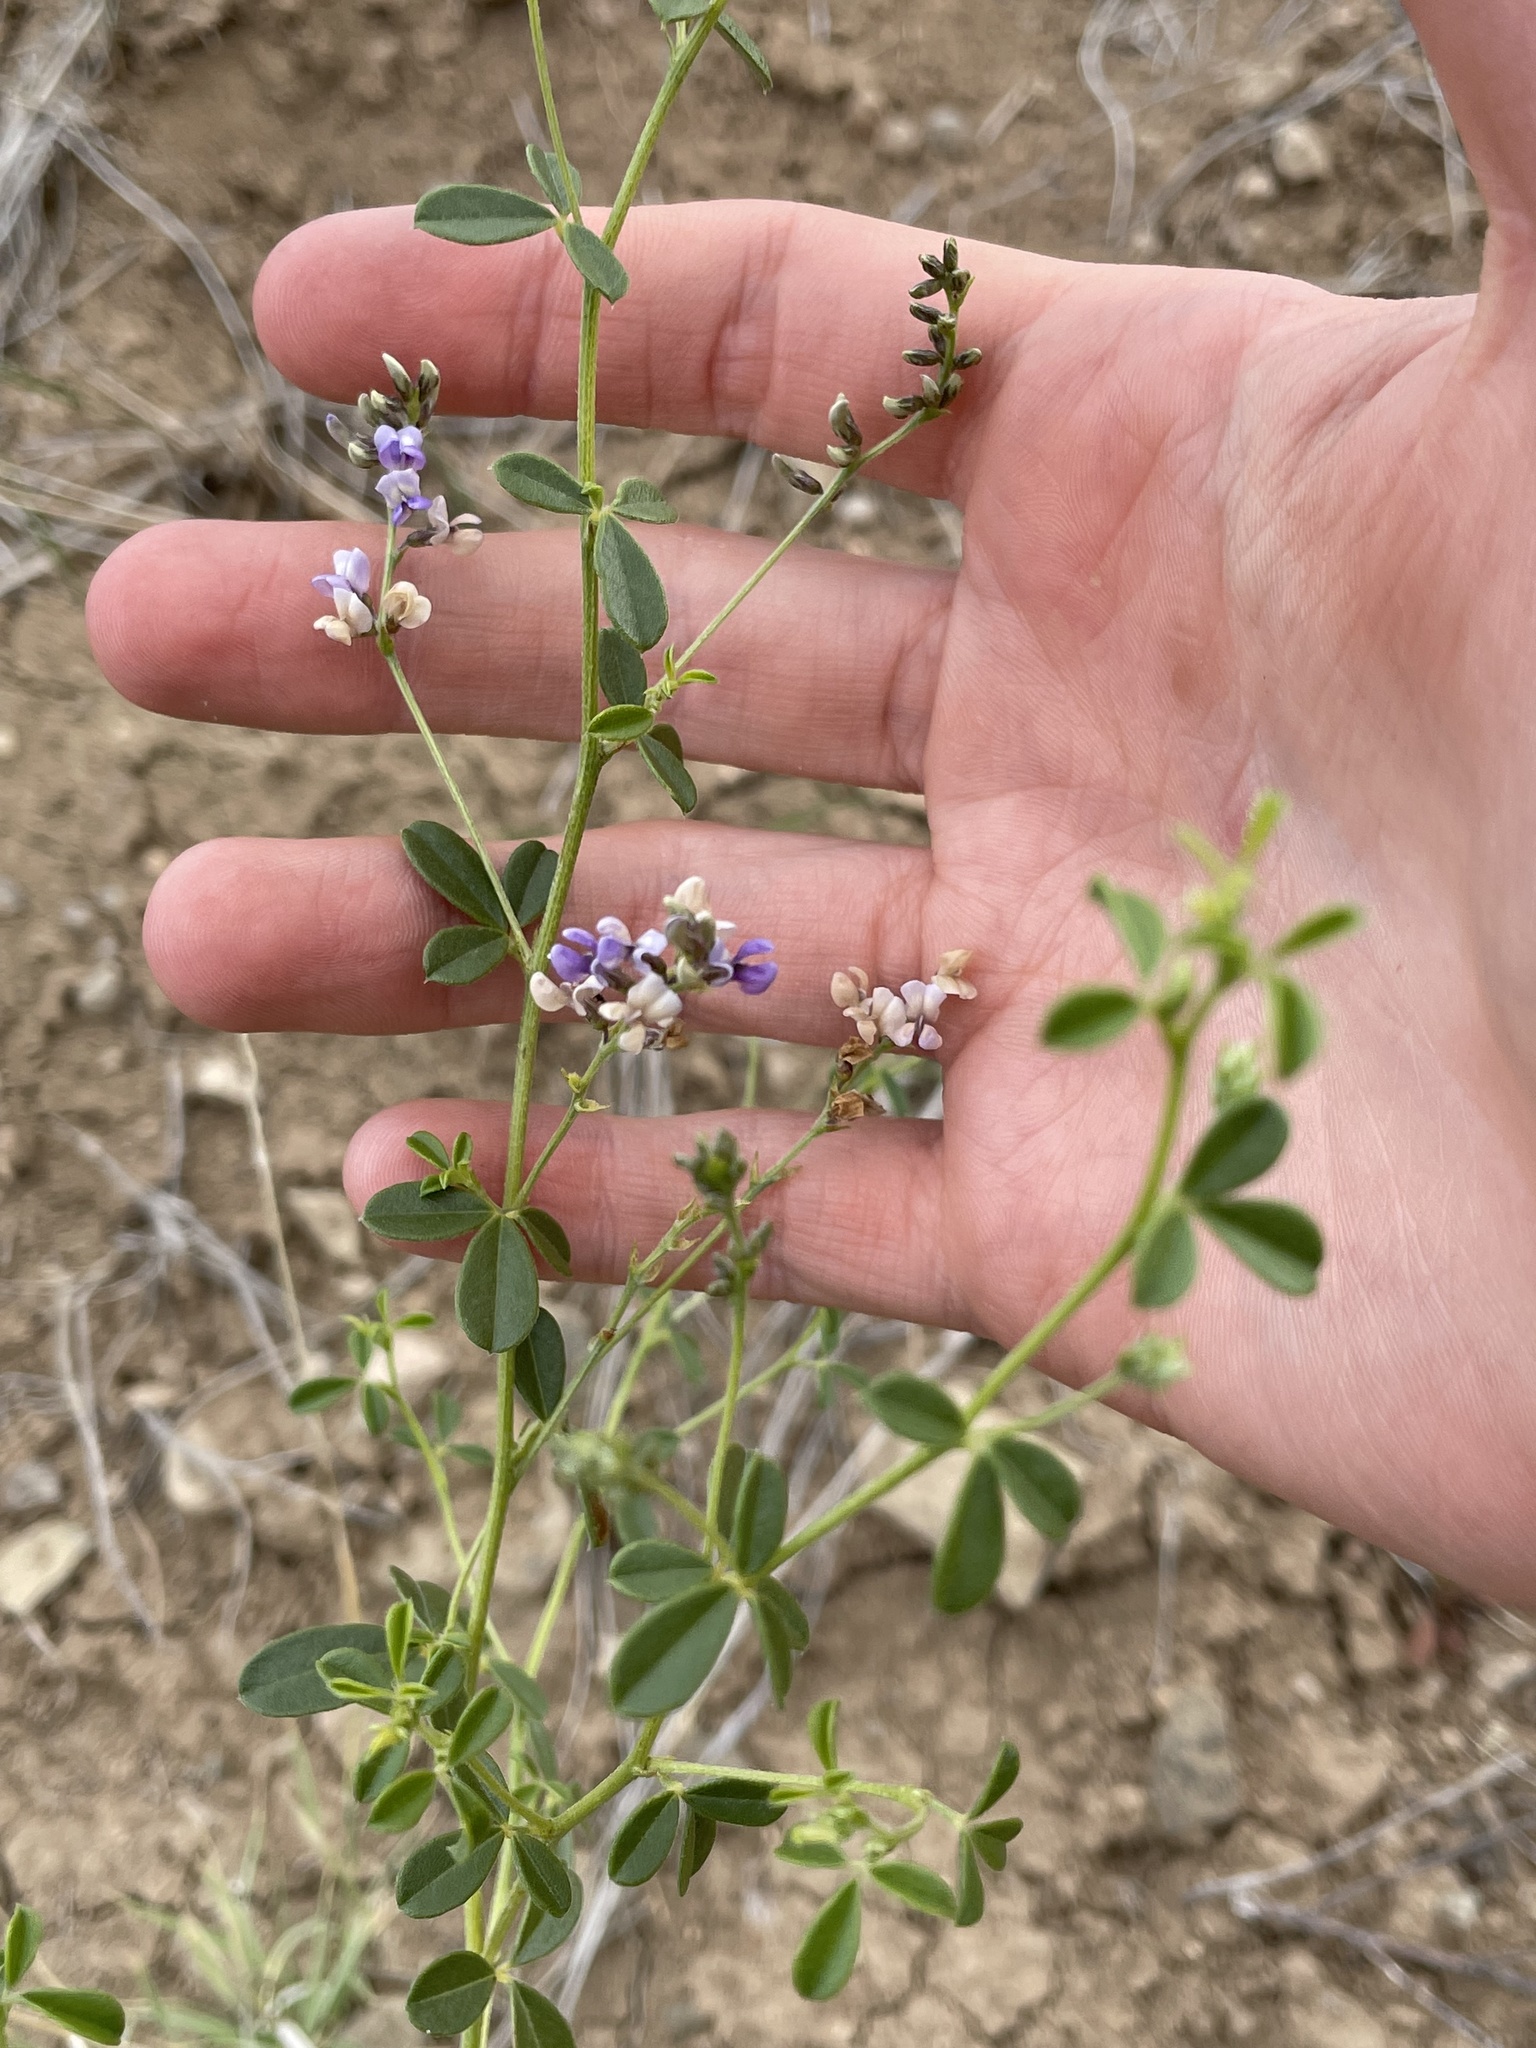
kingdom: Plantae
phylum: Tracheophyta
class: Magnoliopsida
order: Fabales
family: Fabaceae
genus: Pediomelum
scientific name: Pediomelum tenuiflorum
